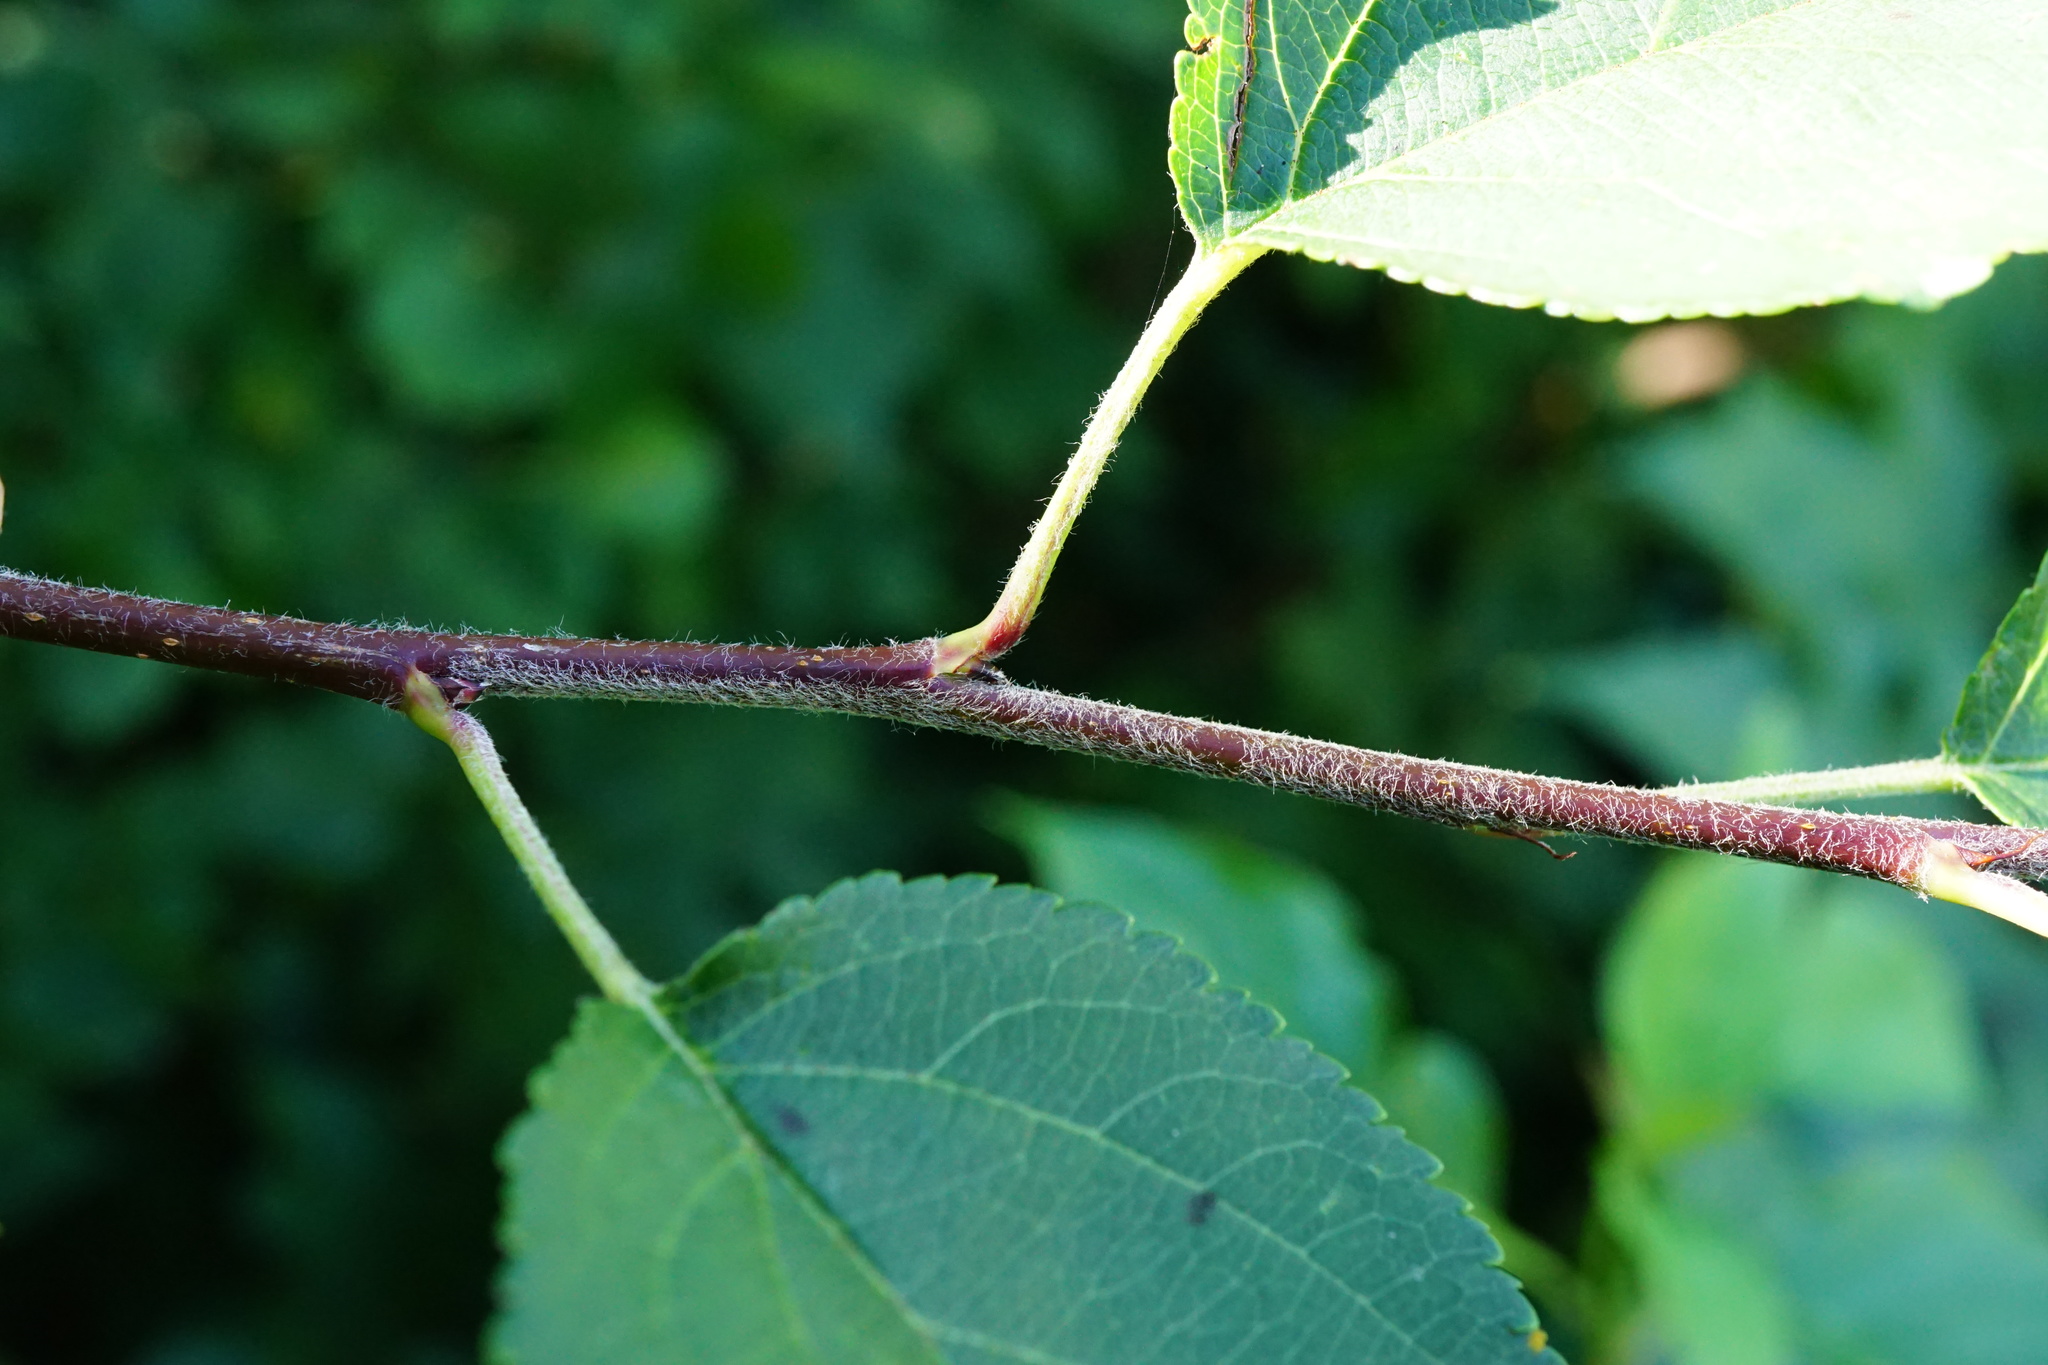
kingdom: Plantae
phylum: Tracheophyta
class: Magnoliopsida
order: Rosales
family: Rosaceae
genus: Malus
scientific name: Malus domestica
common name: Apple
